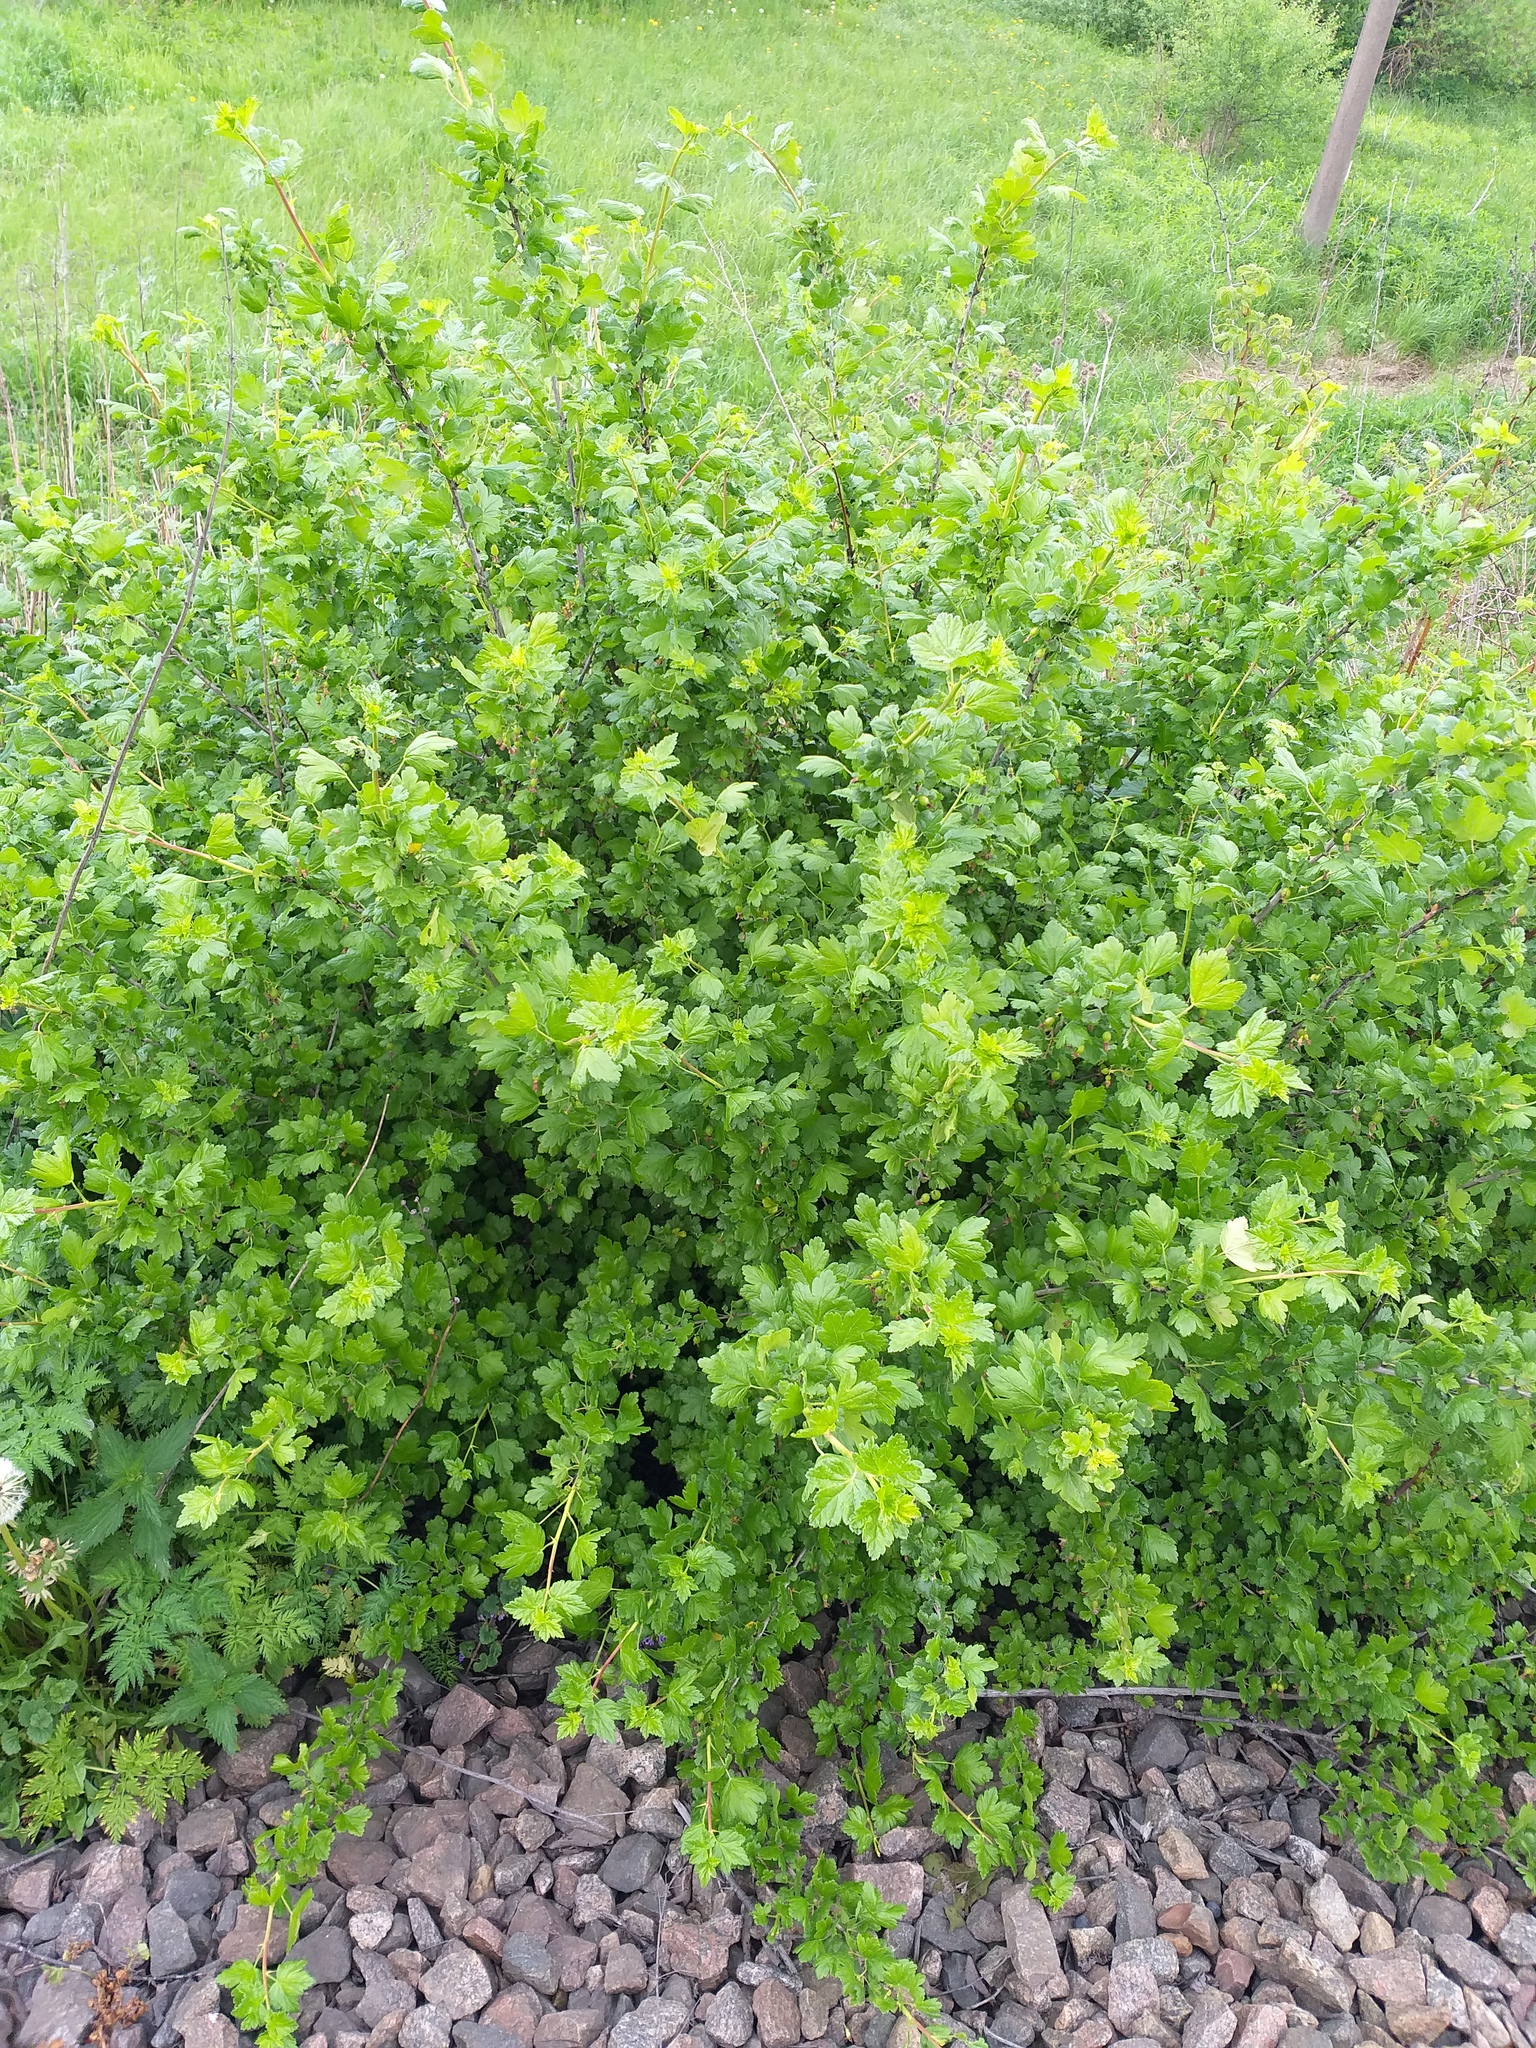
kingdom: Plantae
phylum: Tracheophyta
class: Magnoliopsida
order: Saxifragales
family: Grossulariaceae
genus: Ribes
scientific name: Ribes uva-crispa
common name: Gooseberry
